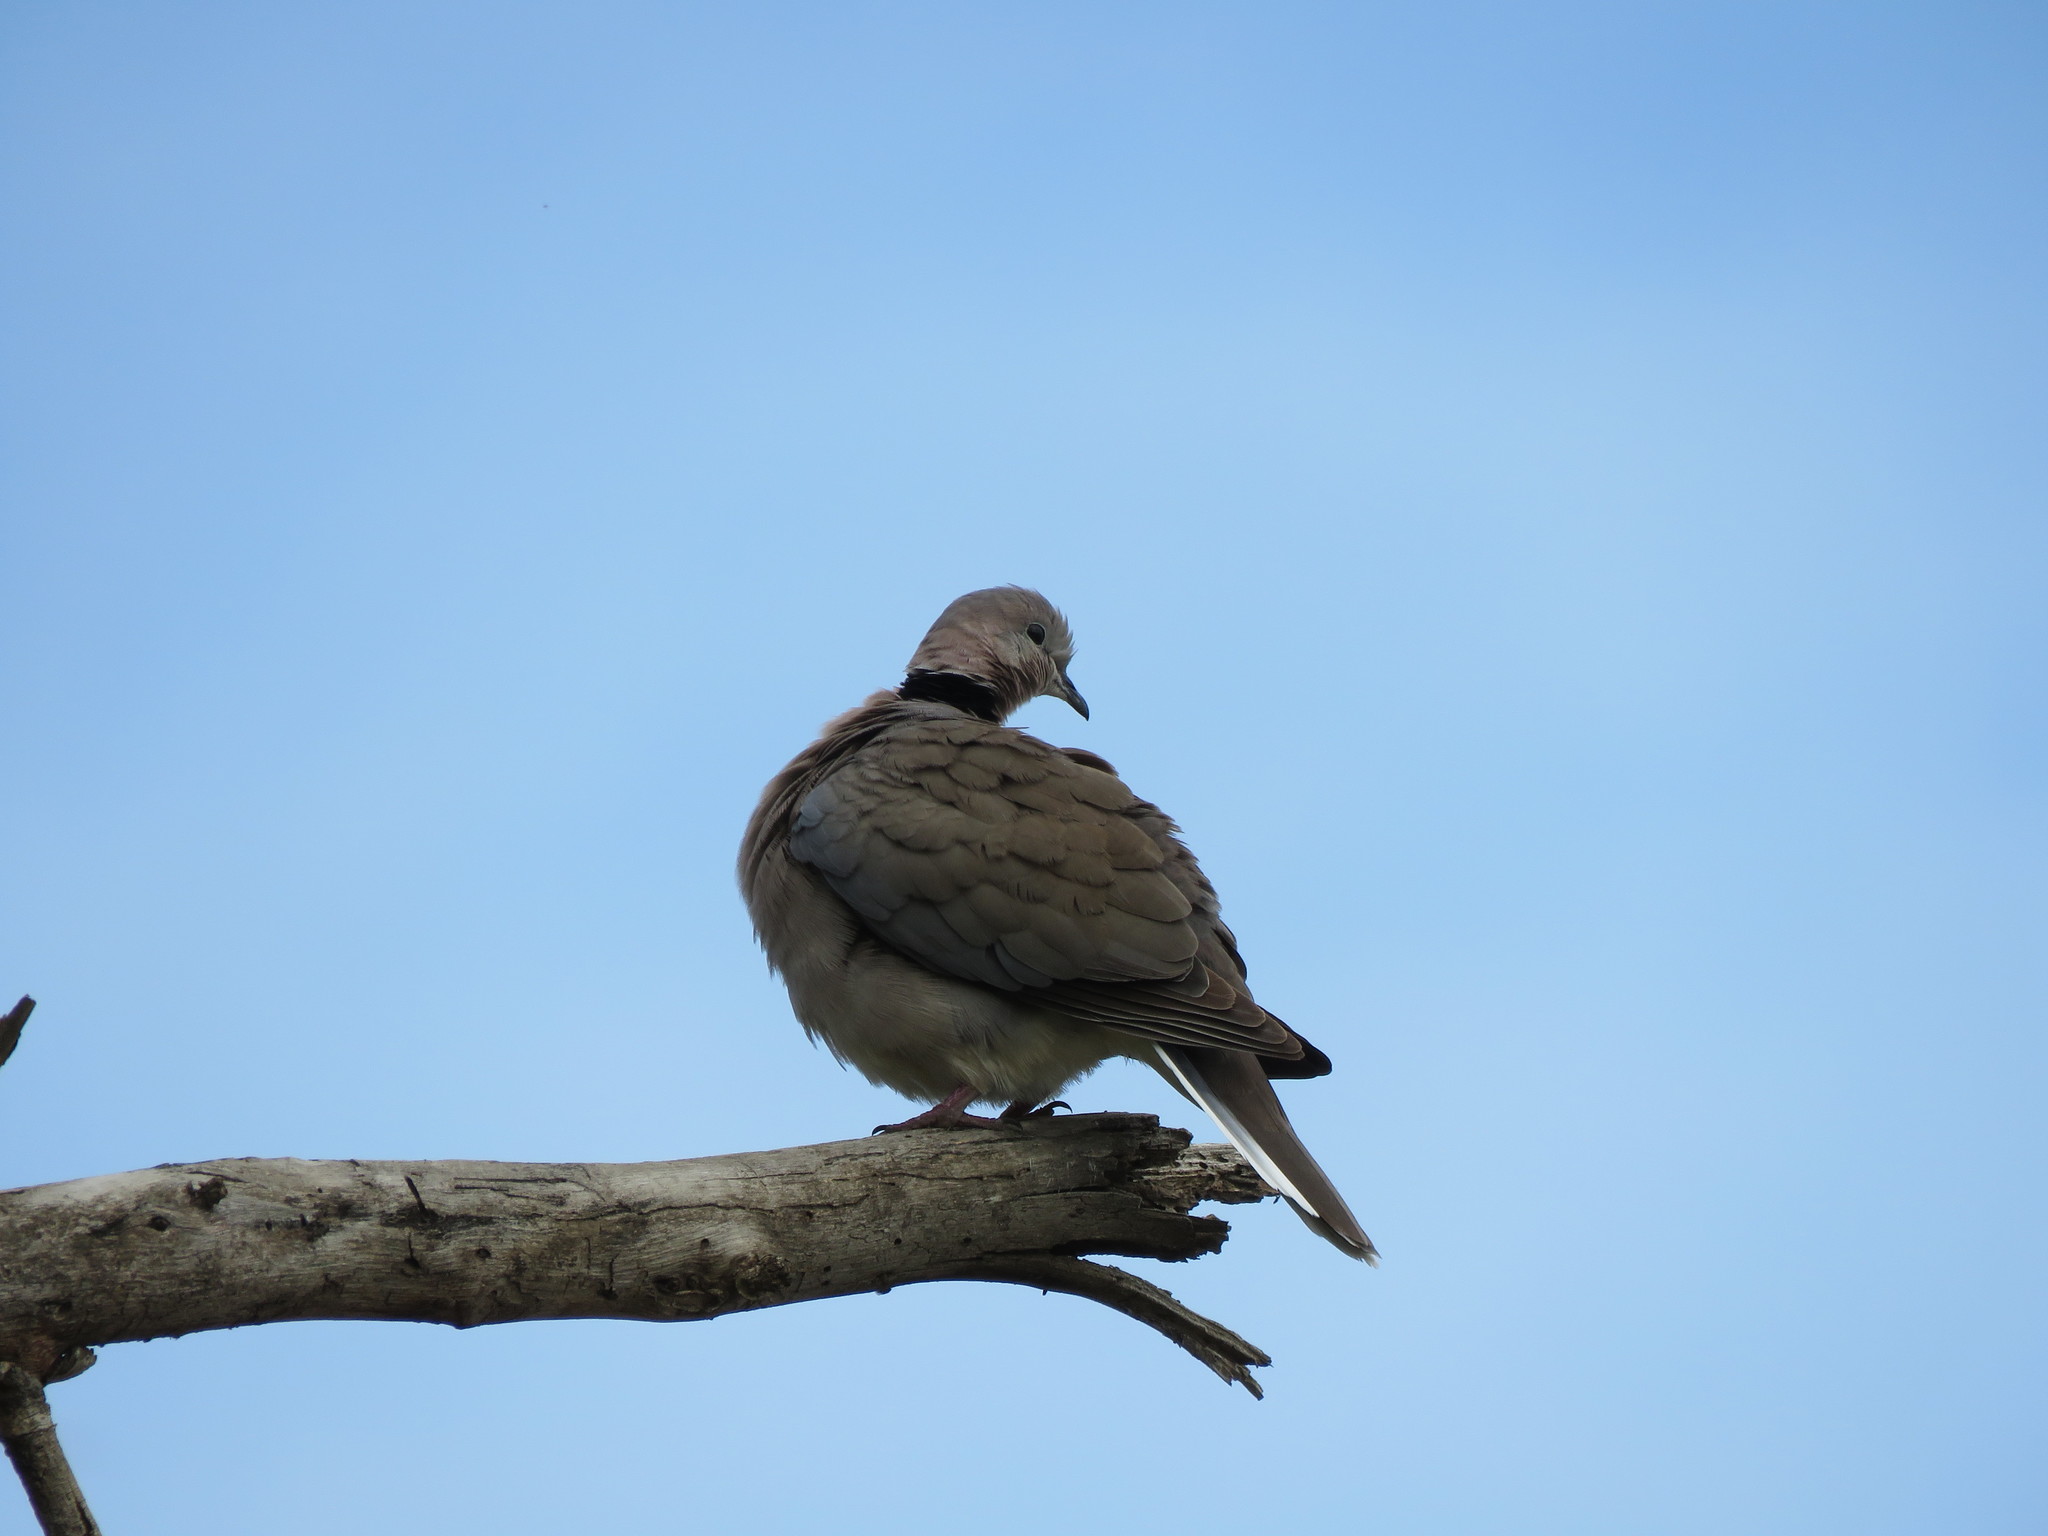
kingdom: Animalia
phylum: Chordata
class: Aves
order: Columbiformes
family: Columbidae
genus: Streptopelia
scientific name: Streptopelia capicola
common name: Ring-necked dove
